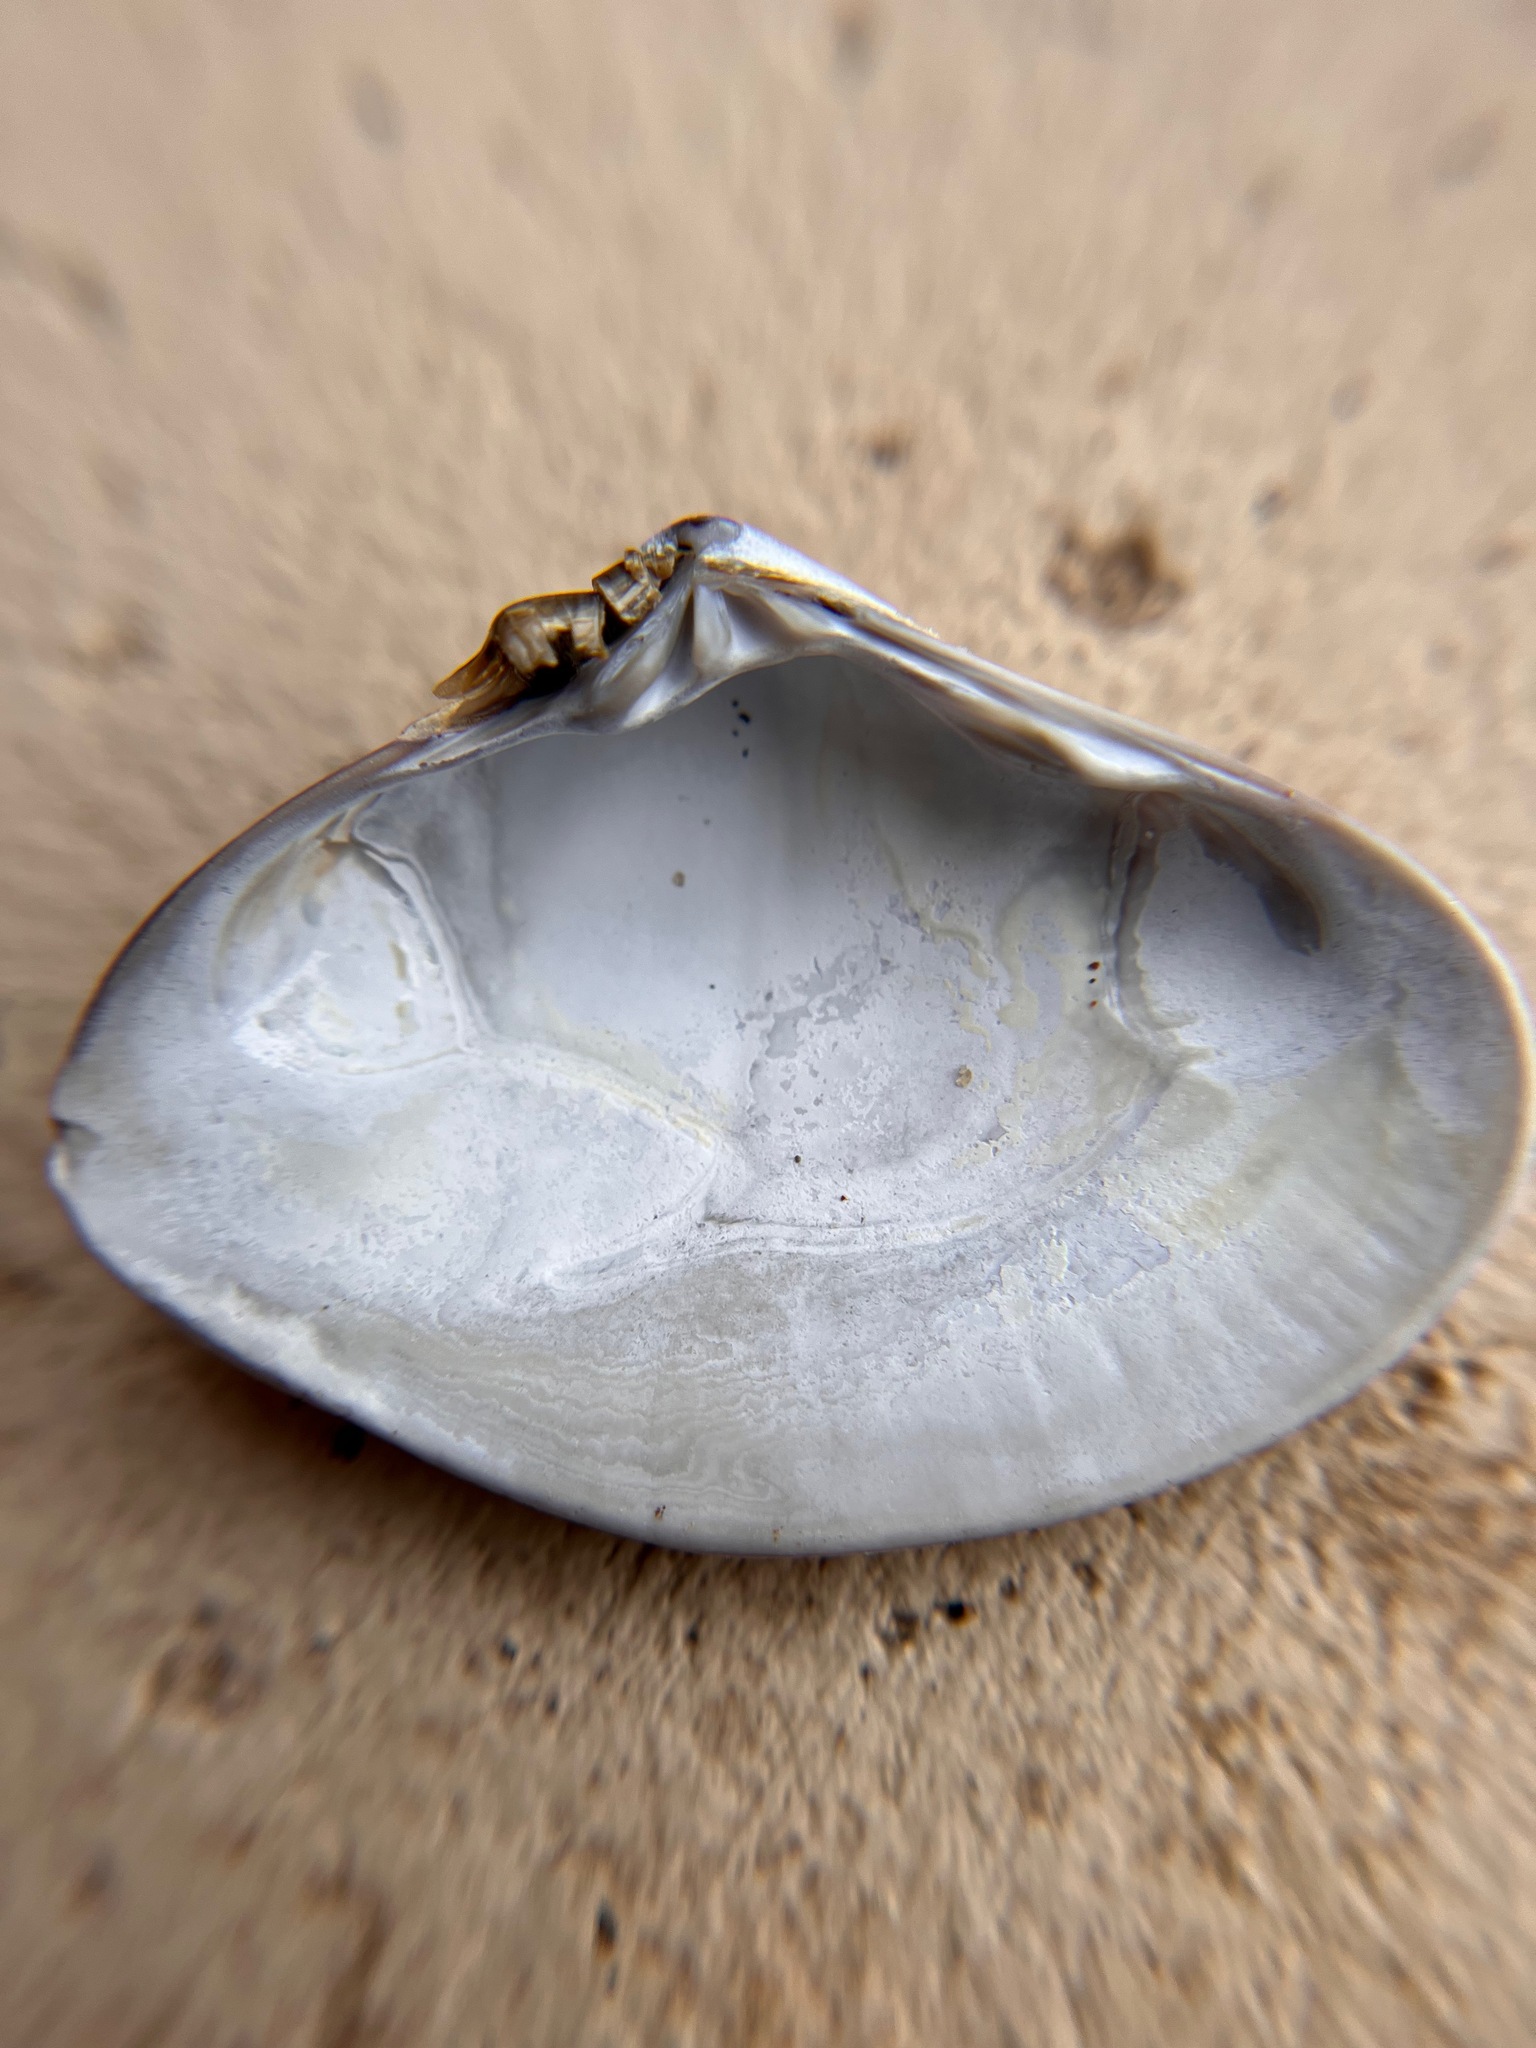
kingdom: Animalia
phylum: Mollusca
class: Bivalvia
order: Venerida
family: Mactridae
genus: Simomactra
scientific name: Simomactra falcata
